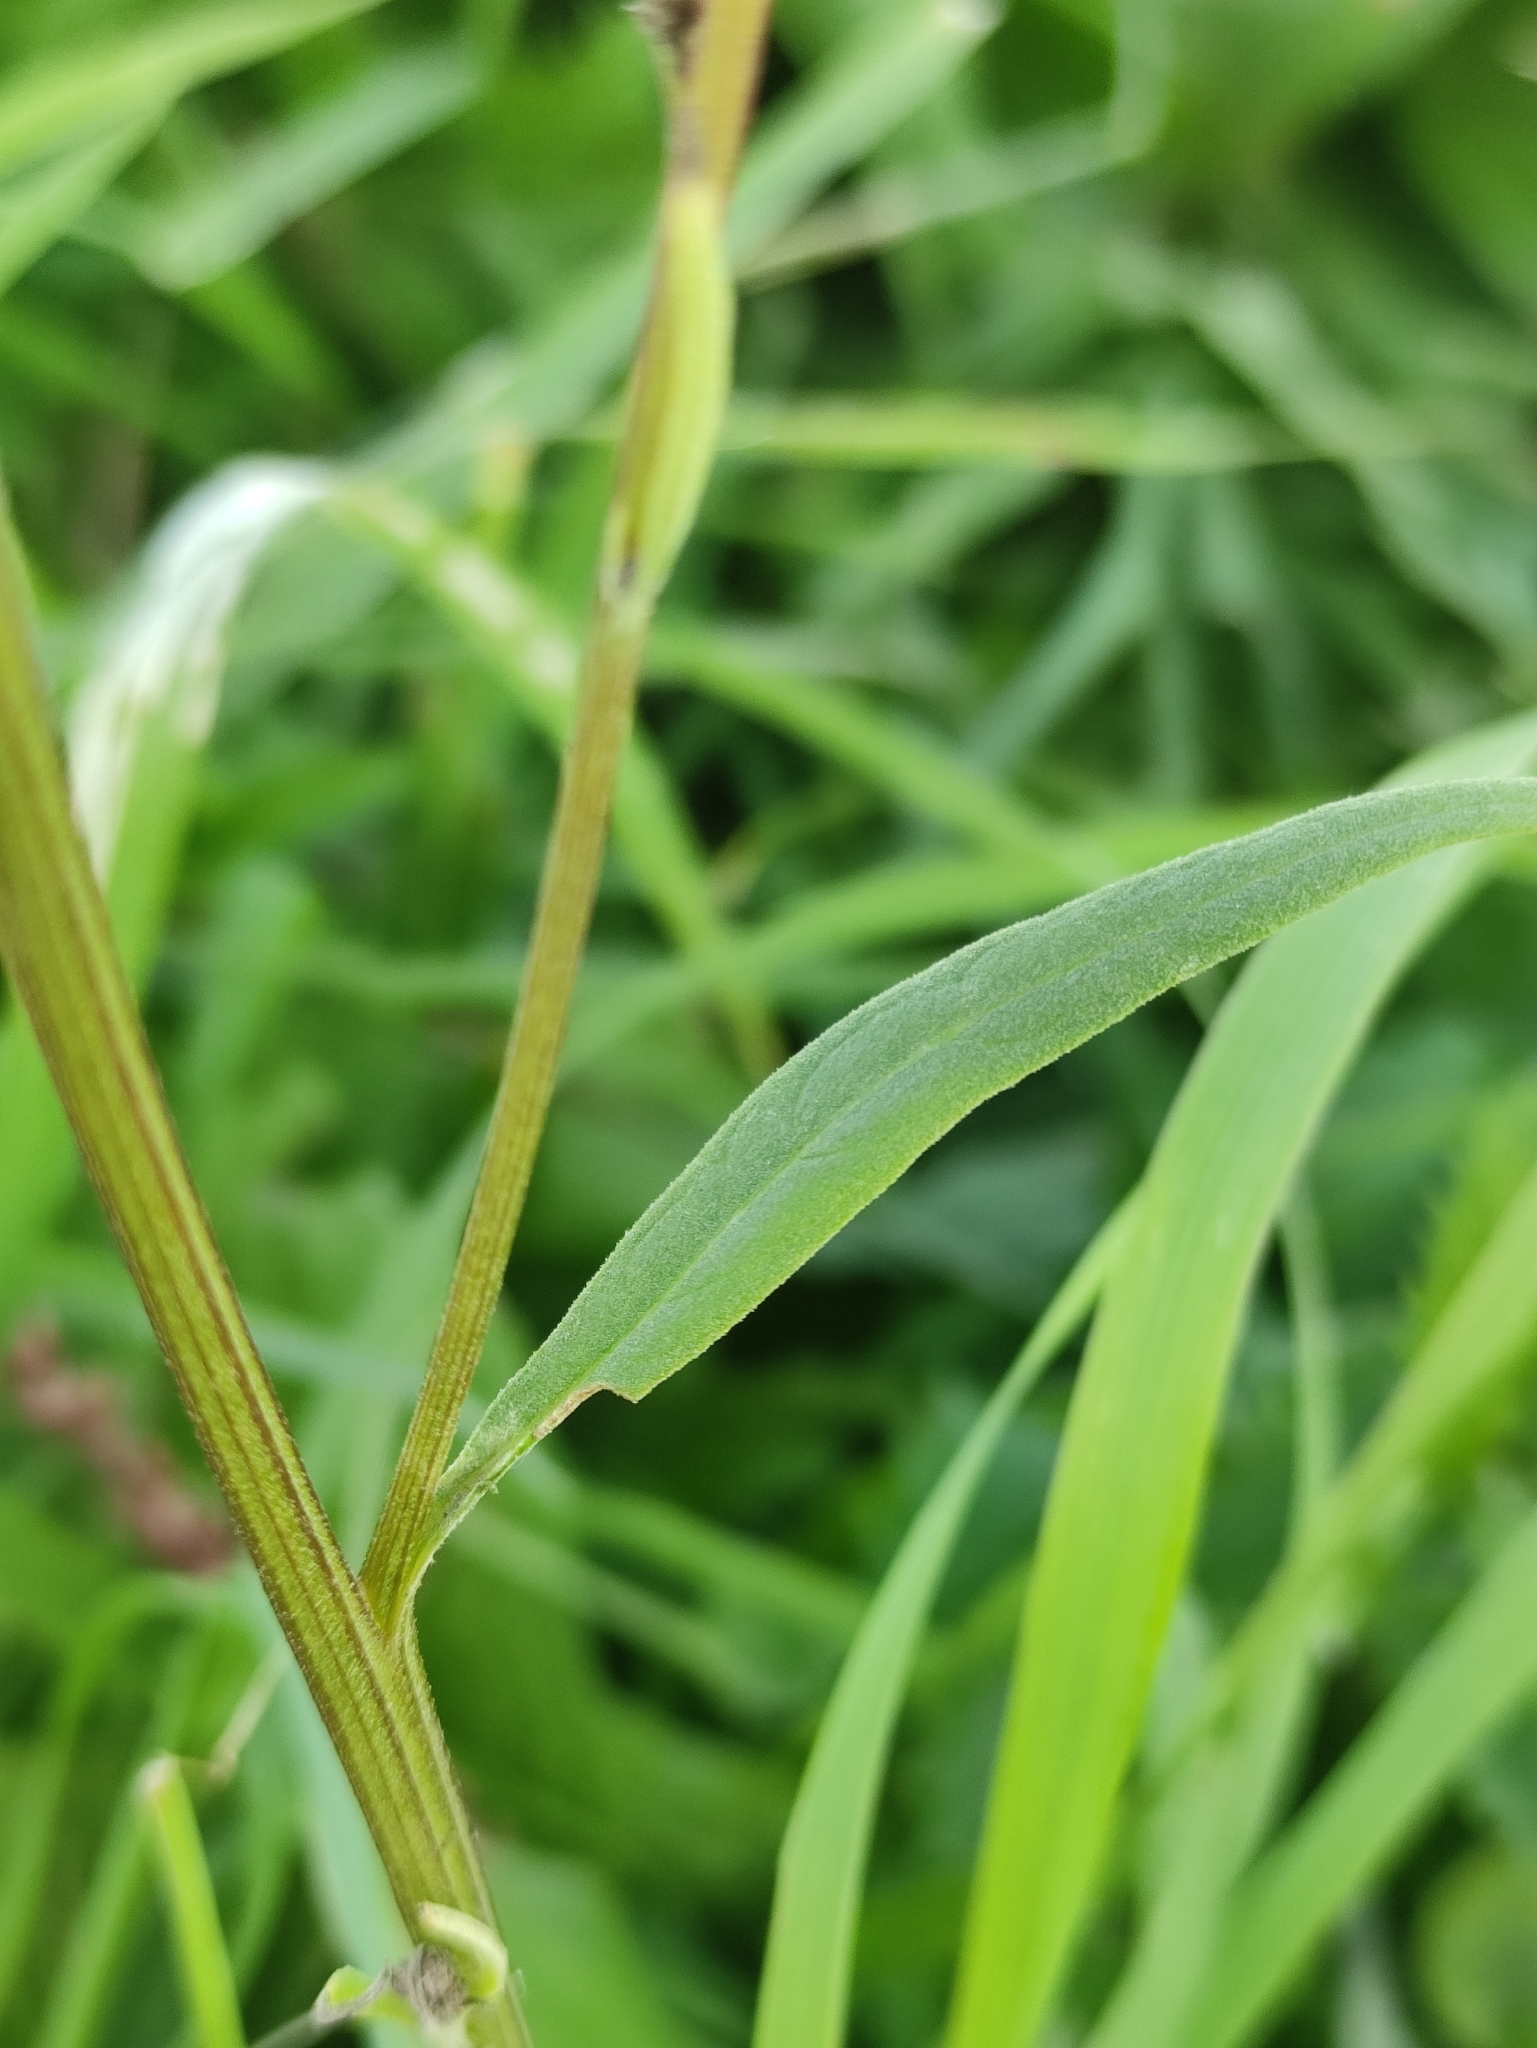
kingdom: Plantae
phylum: Tracheophyta
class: Magnoliopsida
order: Asterales
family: Asteraceae
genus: Saussurea
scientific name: Saussurea amara
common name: Alberta sawwort
